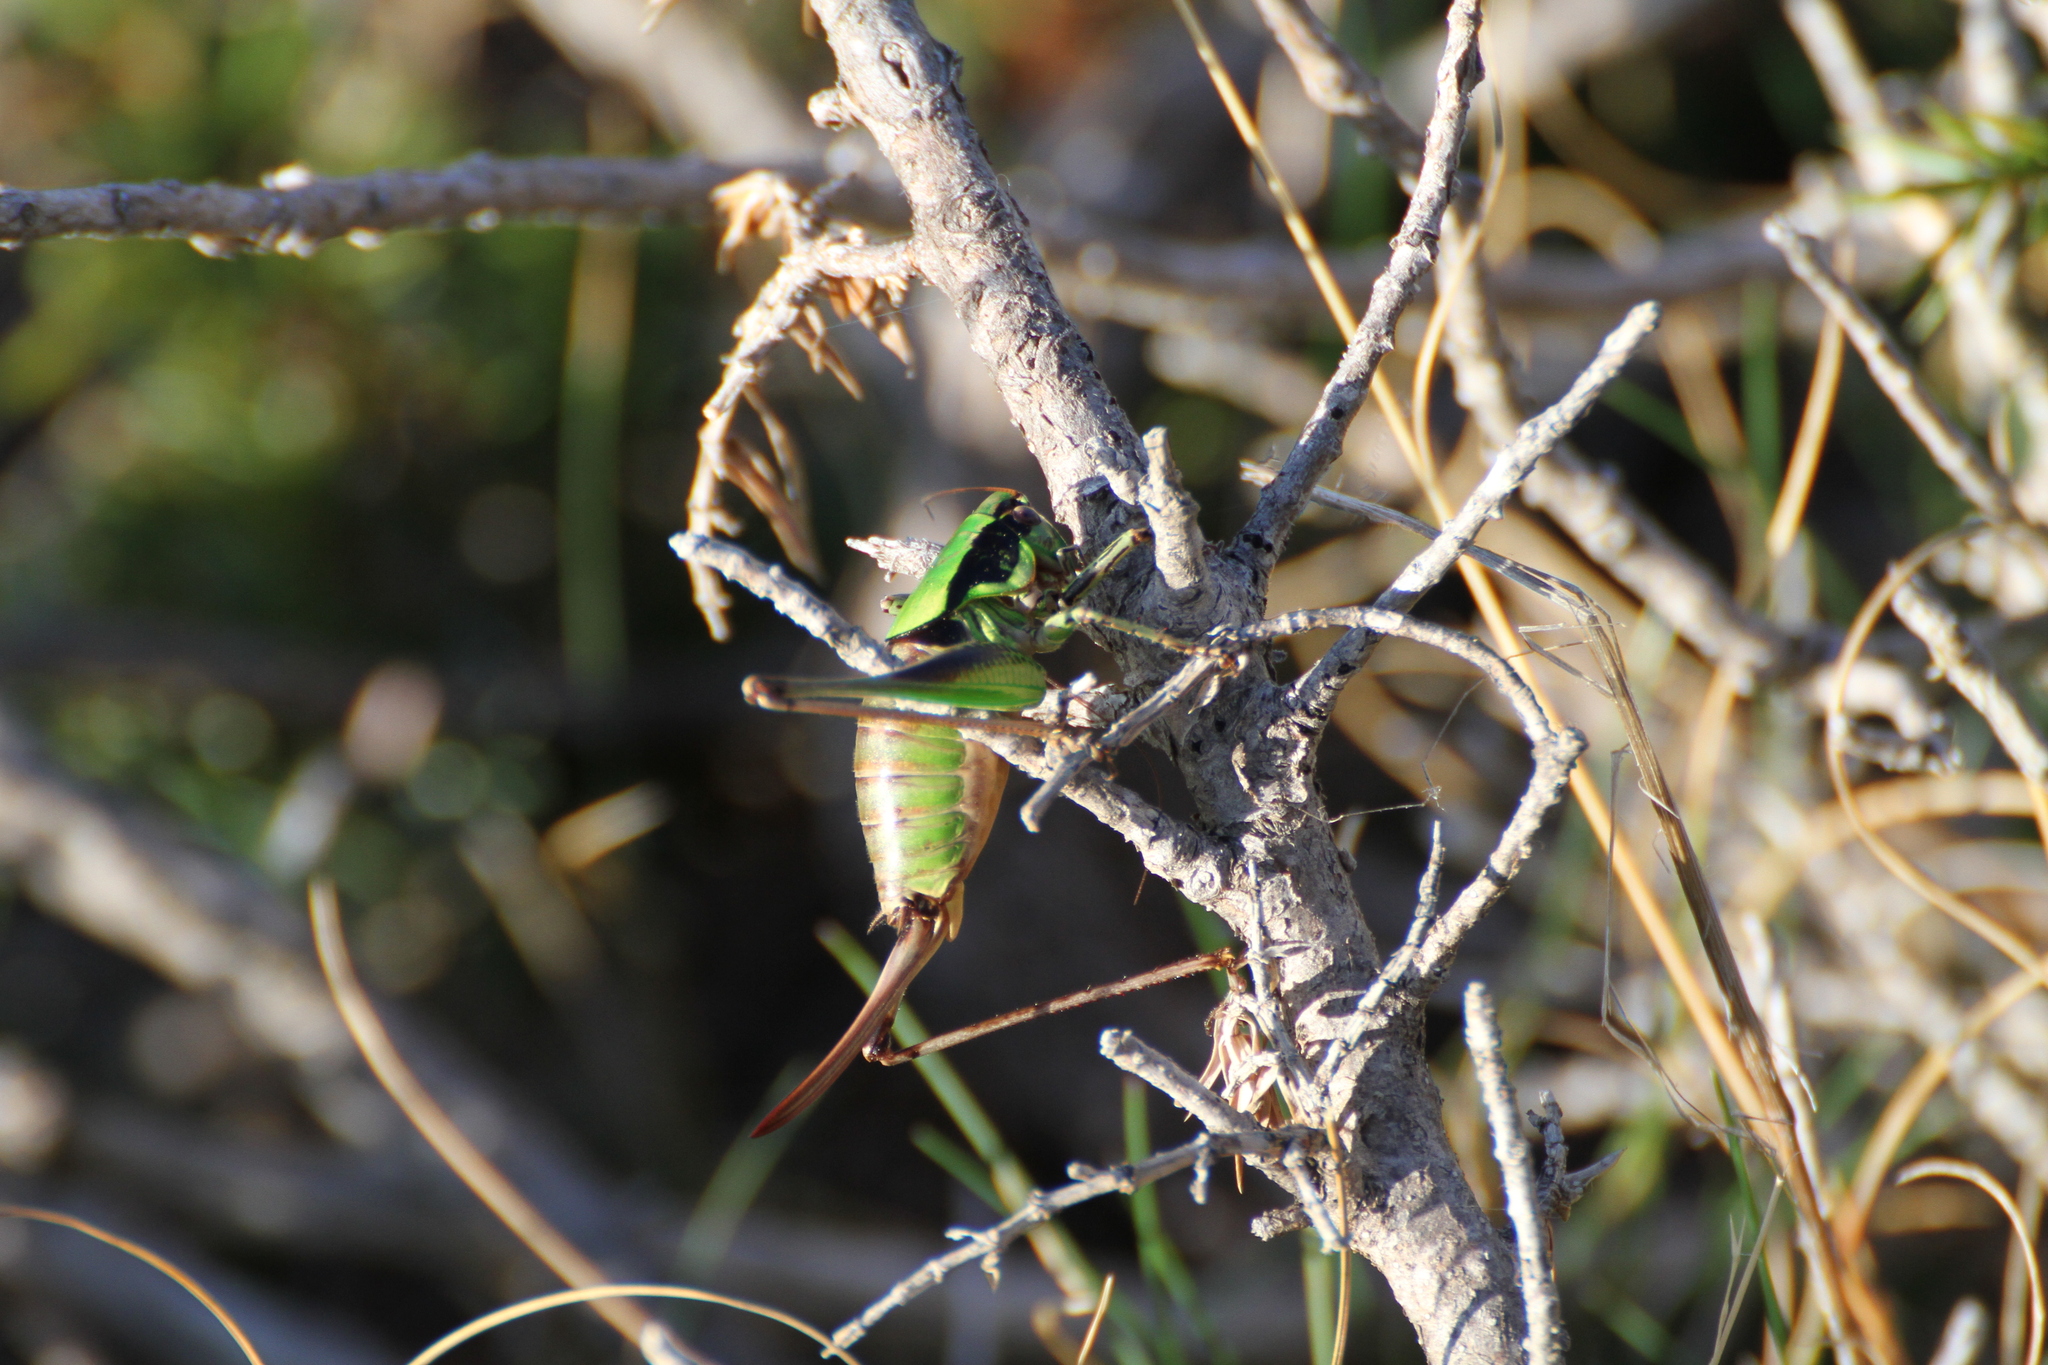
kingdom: Animalia
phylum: Arthropoda
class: Insecta
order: Orthoptera
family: Tettigoniidae
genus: Eupholidoptera
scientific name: Eupholidoptera chabrieri
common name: Chabrier's marbled bush-cricket
